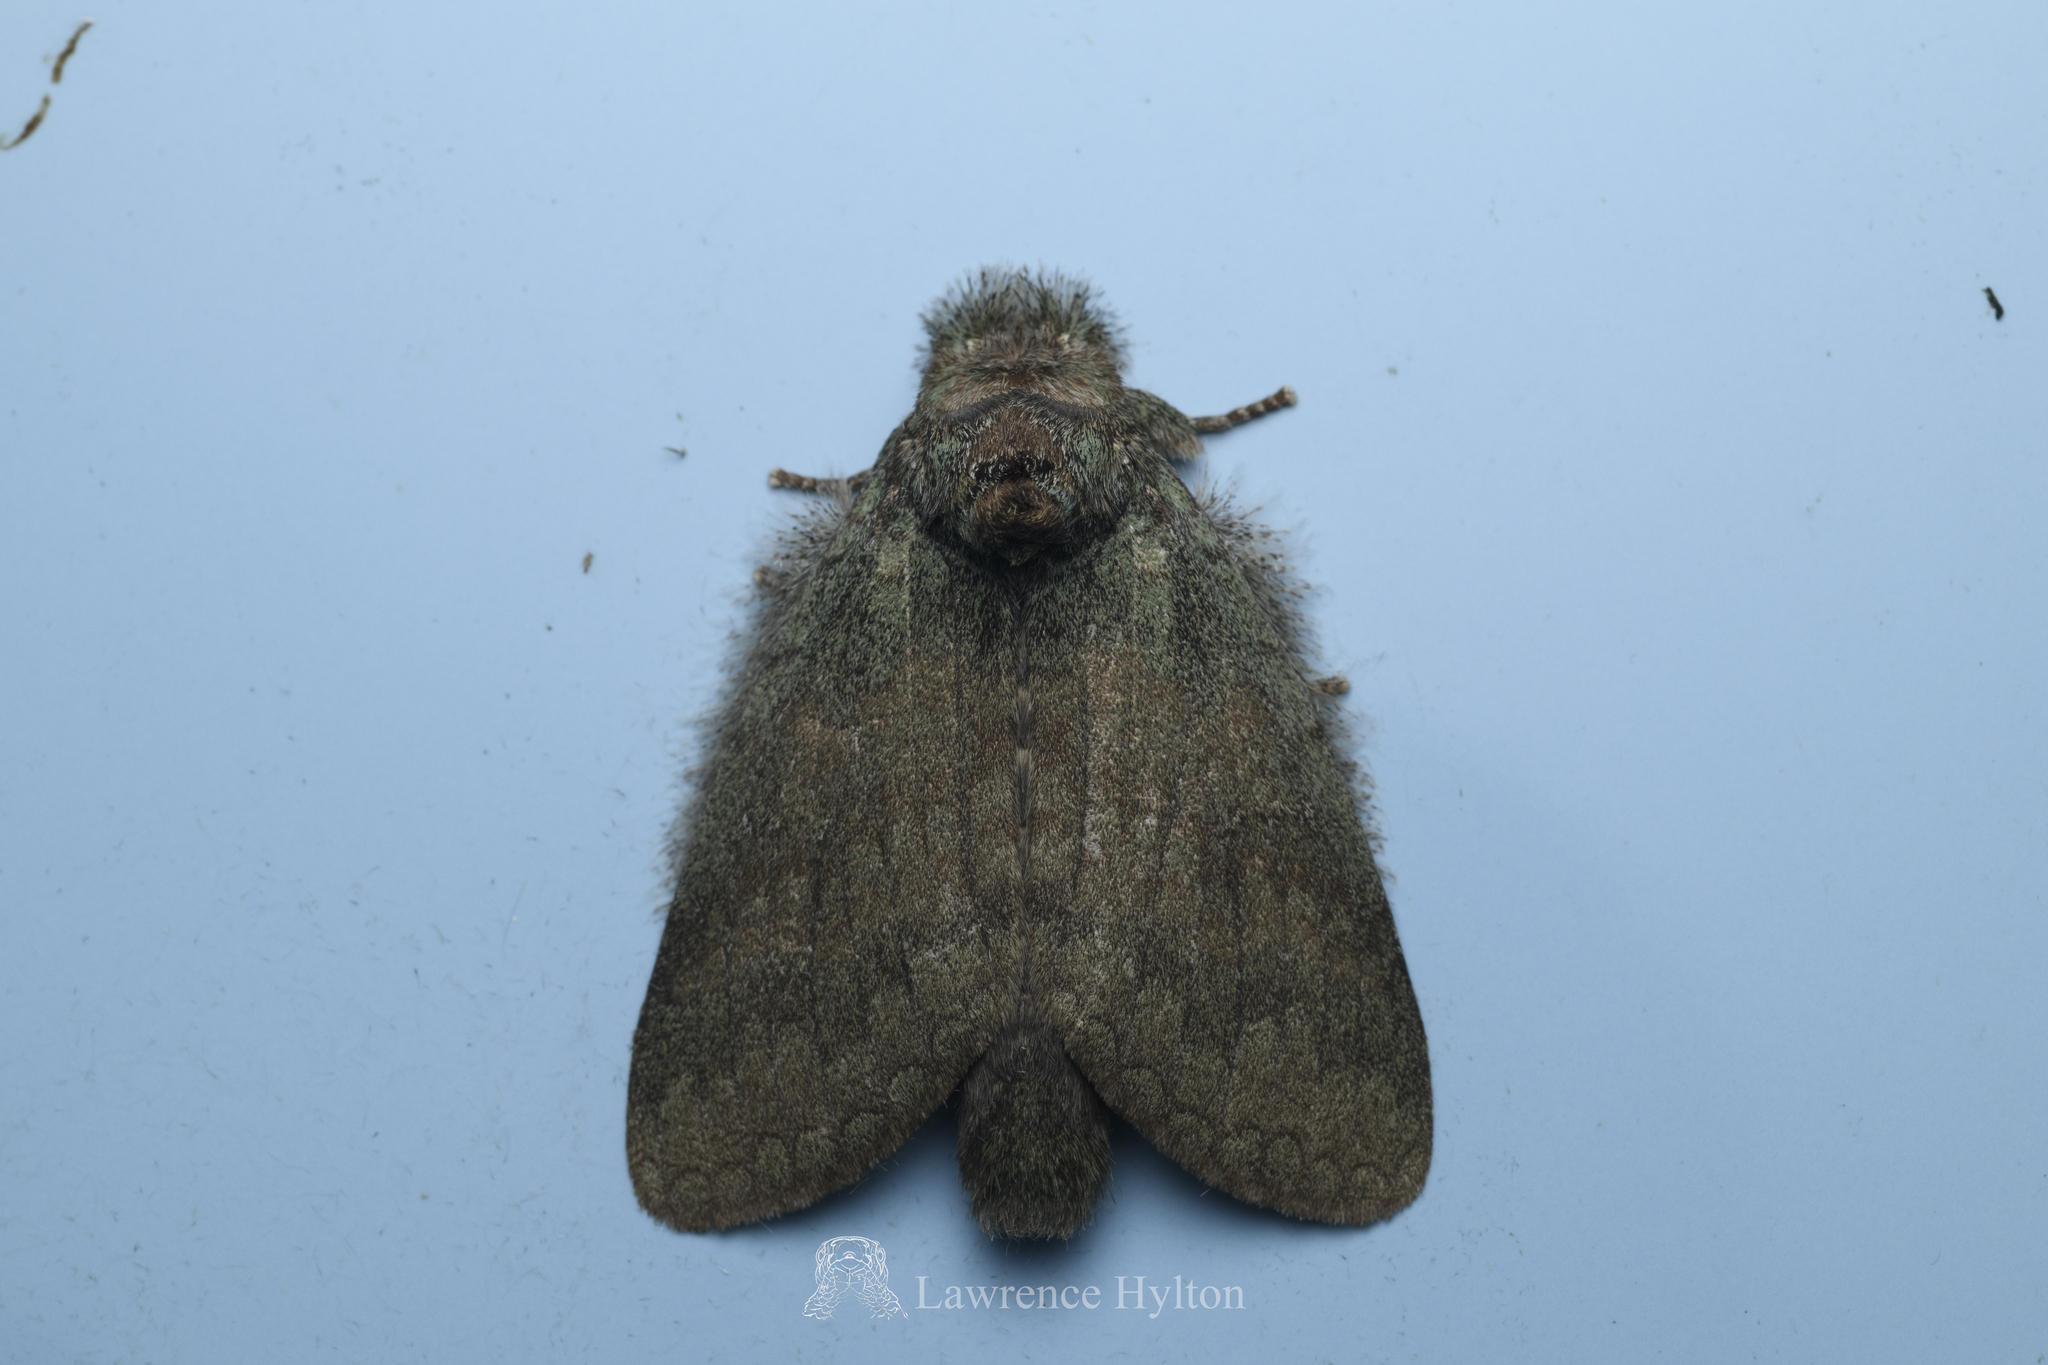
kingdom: Animalia
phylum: Arthropoda
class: Insecta
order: Lepidoptera
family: Notodontidae
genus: Netria
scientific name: Netria viridescens
